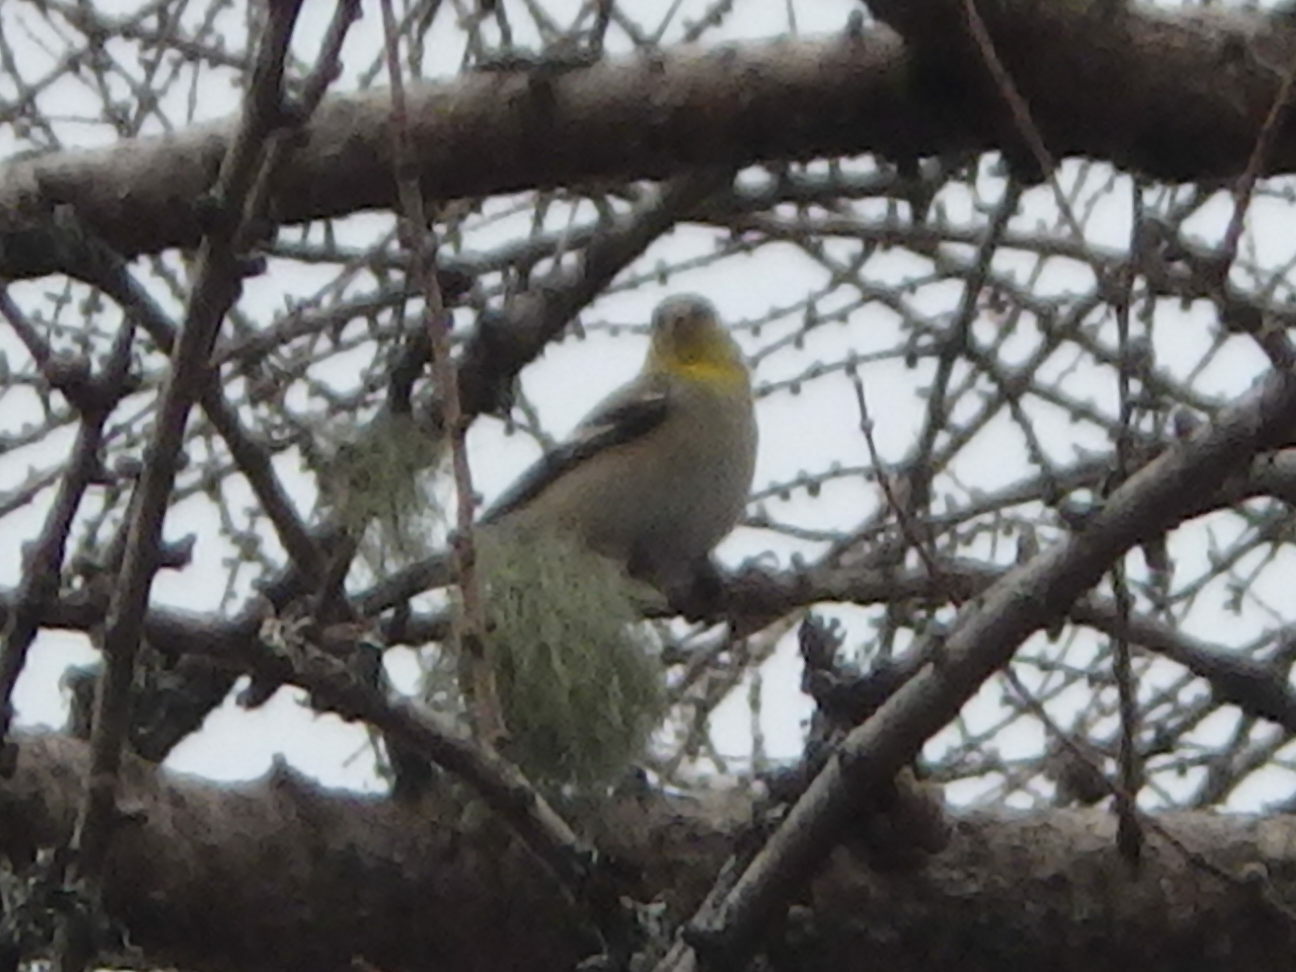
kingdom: Animalia
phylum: Chordata
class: Aves
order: Passeriformes
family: Fringillidae
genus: Spinus
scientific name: Spinus tristis
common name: American goldfinch
